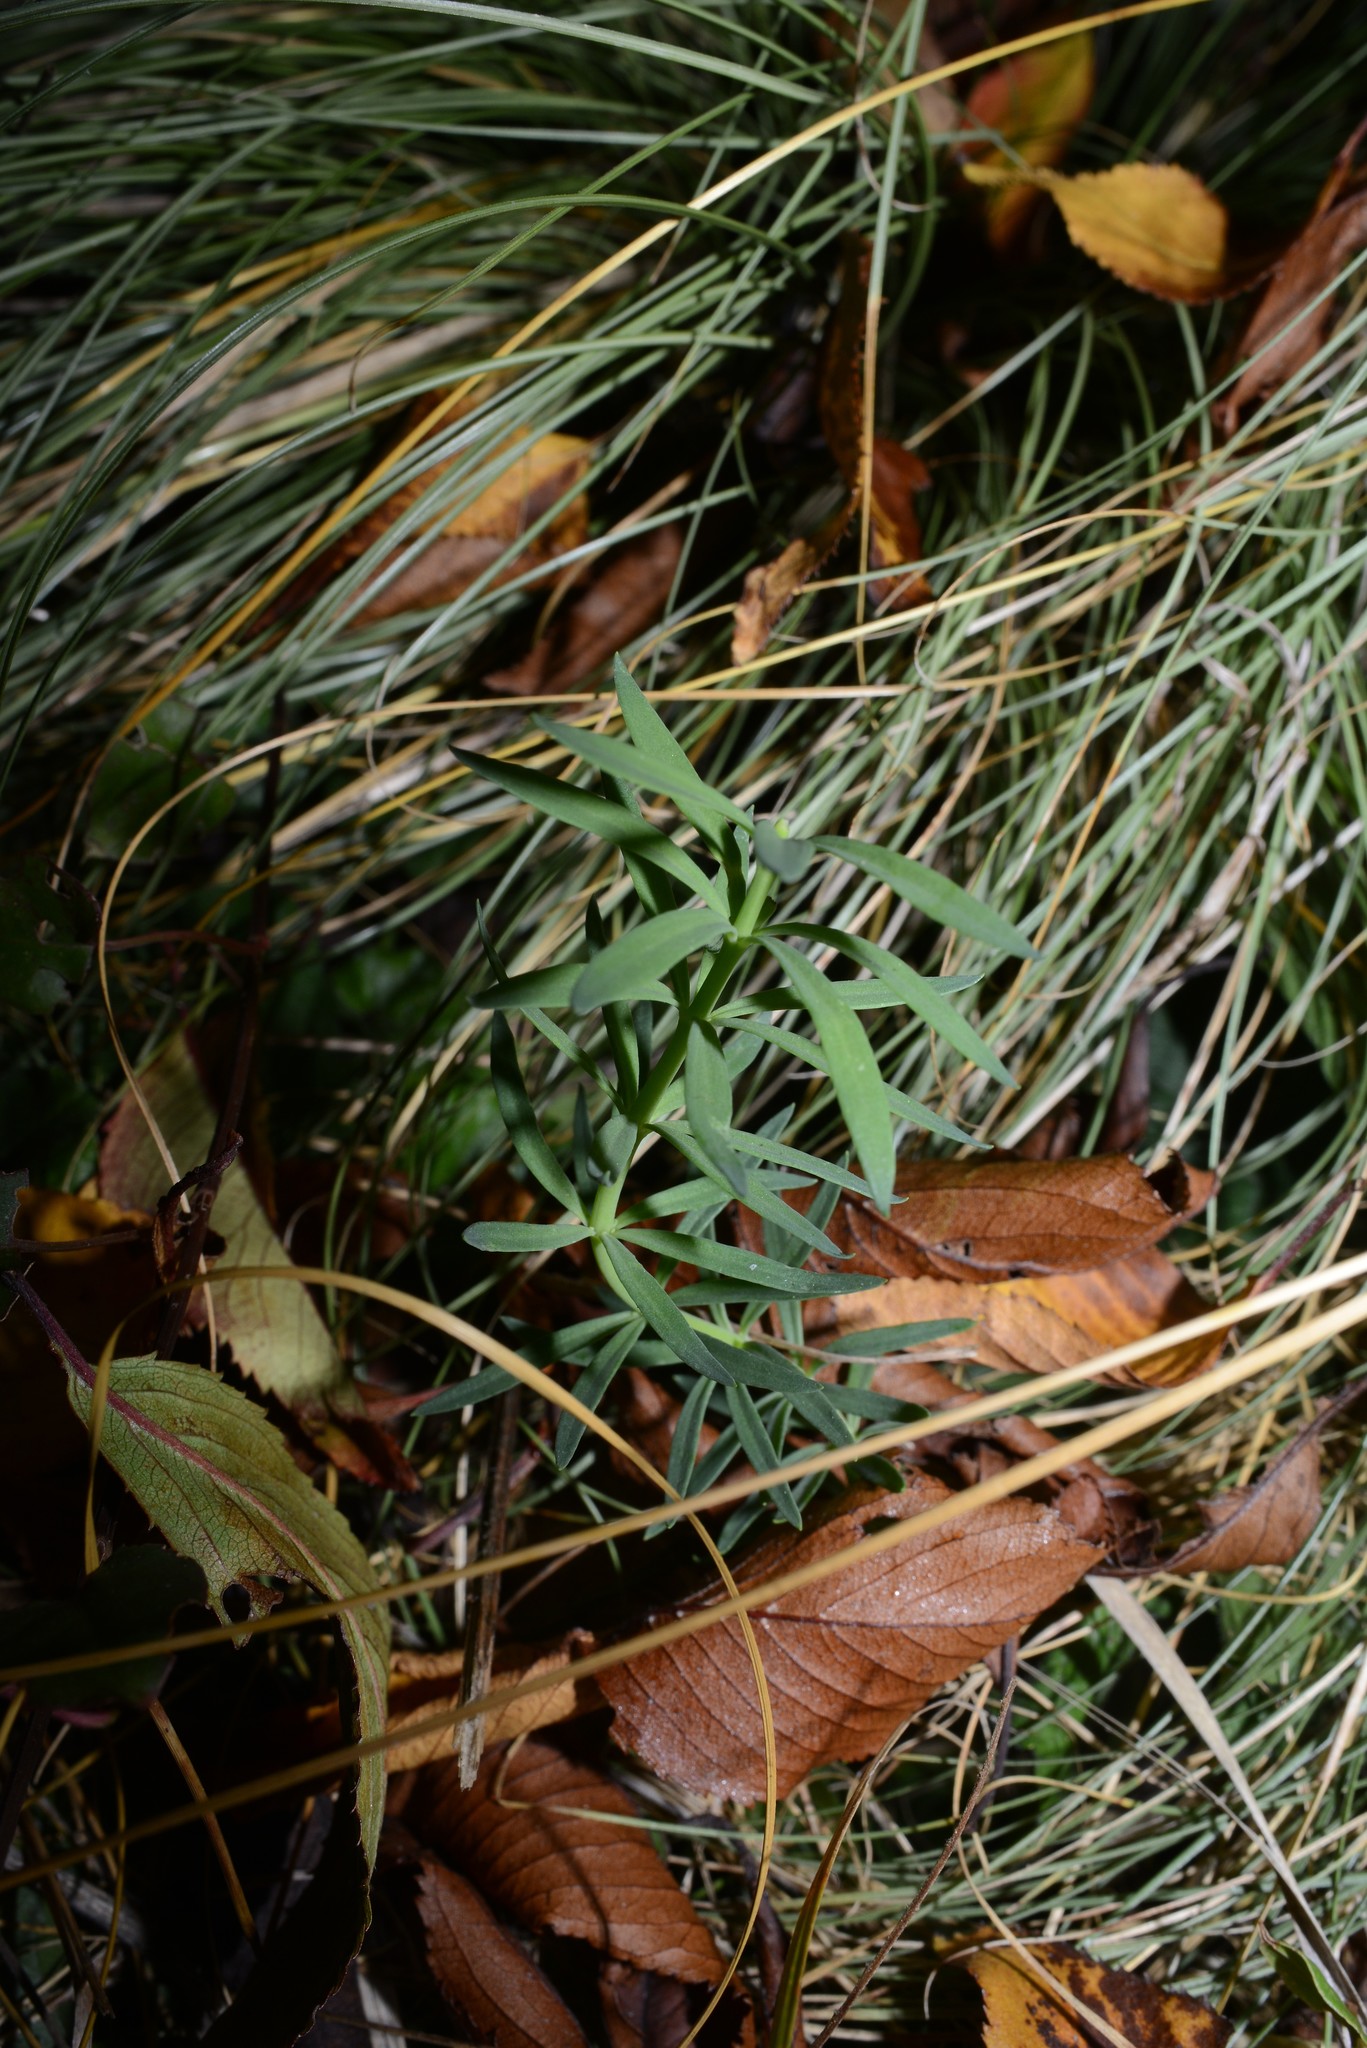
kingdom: Plantae
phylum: Tracheophyta
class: Magnoliopsida
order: Lamiales
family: Plantaginaceae
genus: Linaria
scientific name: Linaria purpurea
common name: Purple toadflax
